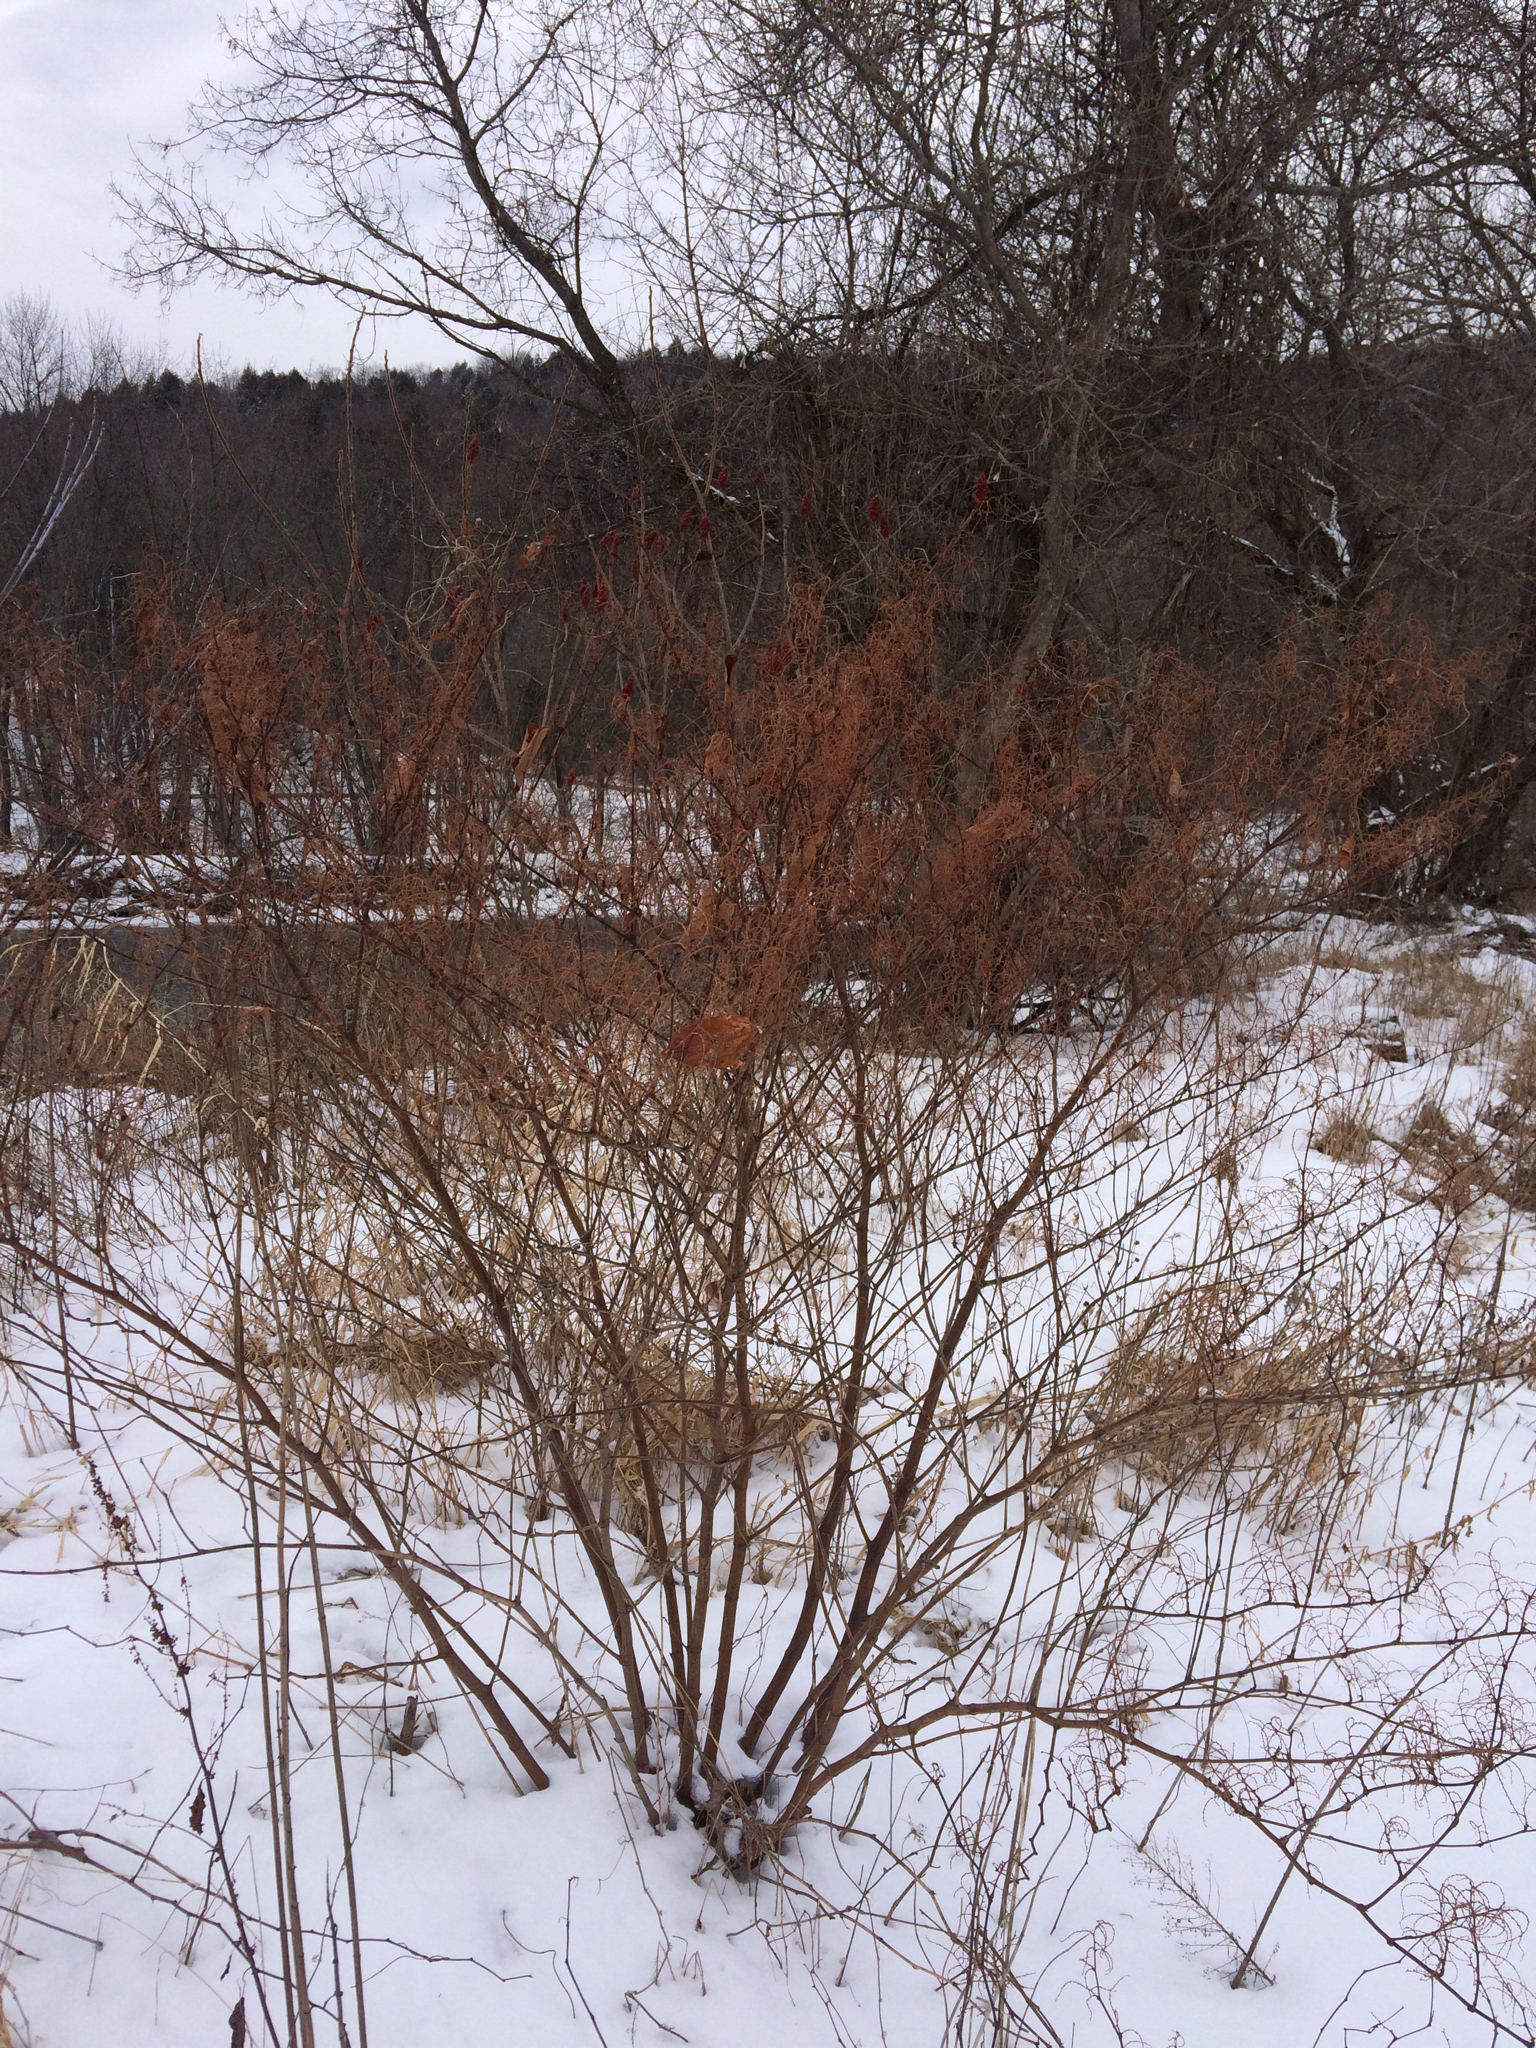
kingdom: Plantae
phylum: Tracheophyta
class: Magnoliopsida
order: Caryophyllales
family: Polygonaceae
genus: Reynoutria
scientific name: Reynoutria japonica
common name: Japanese knotweed
